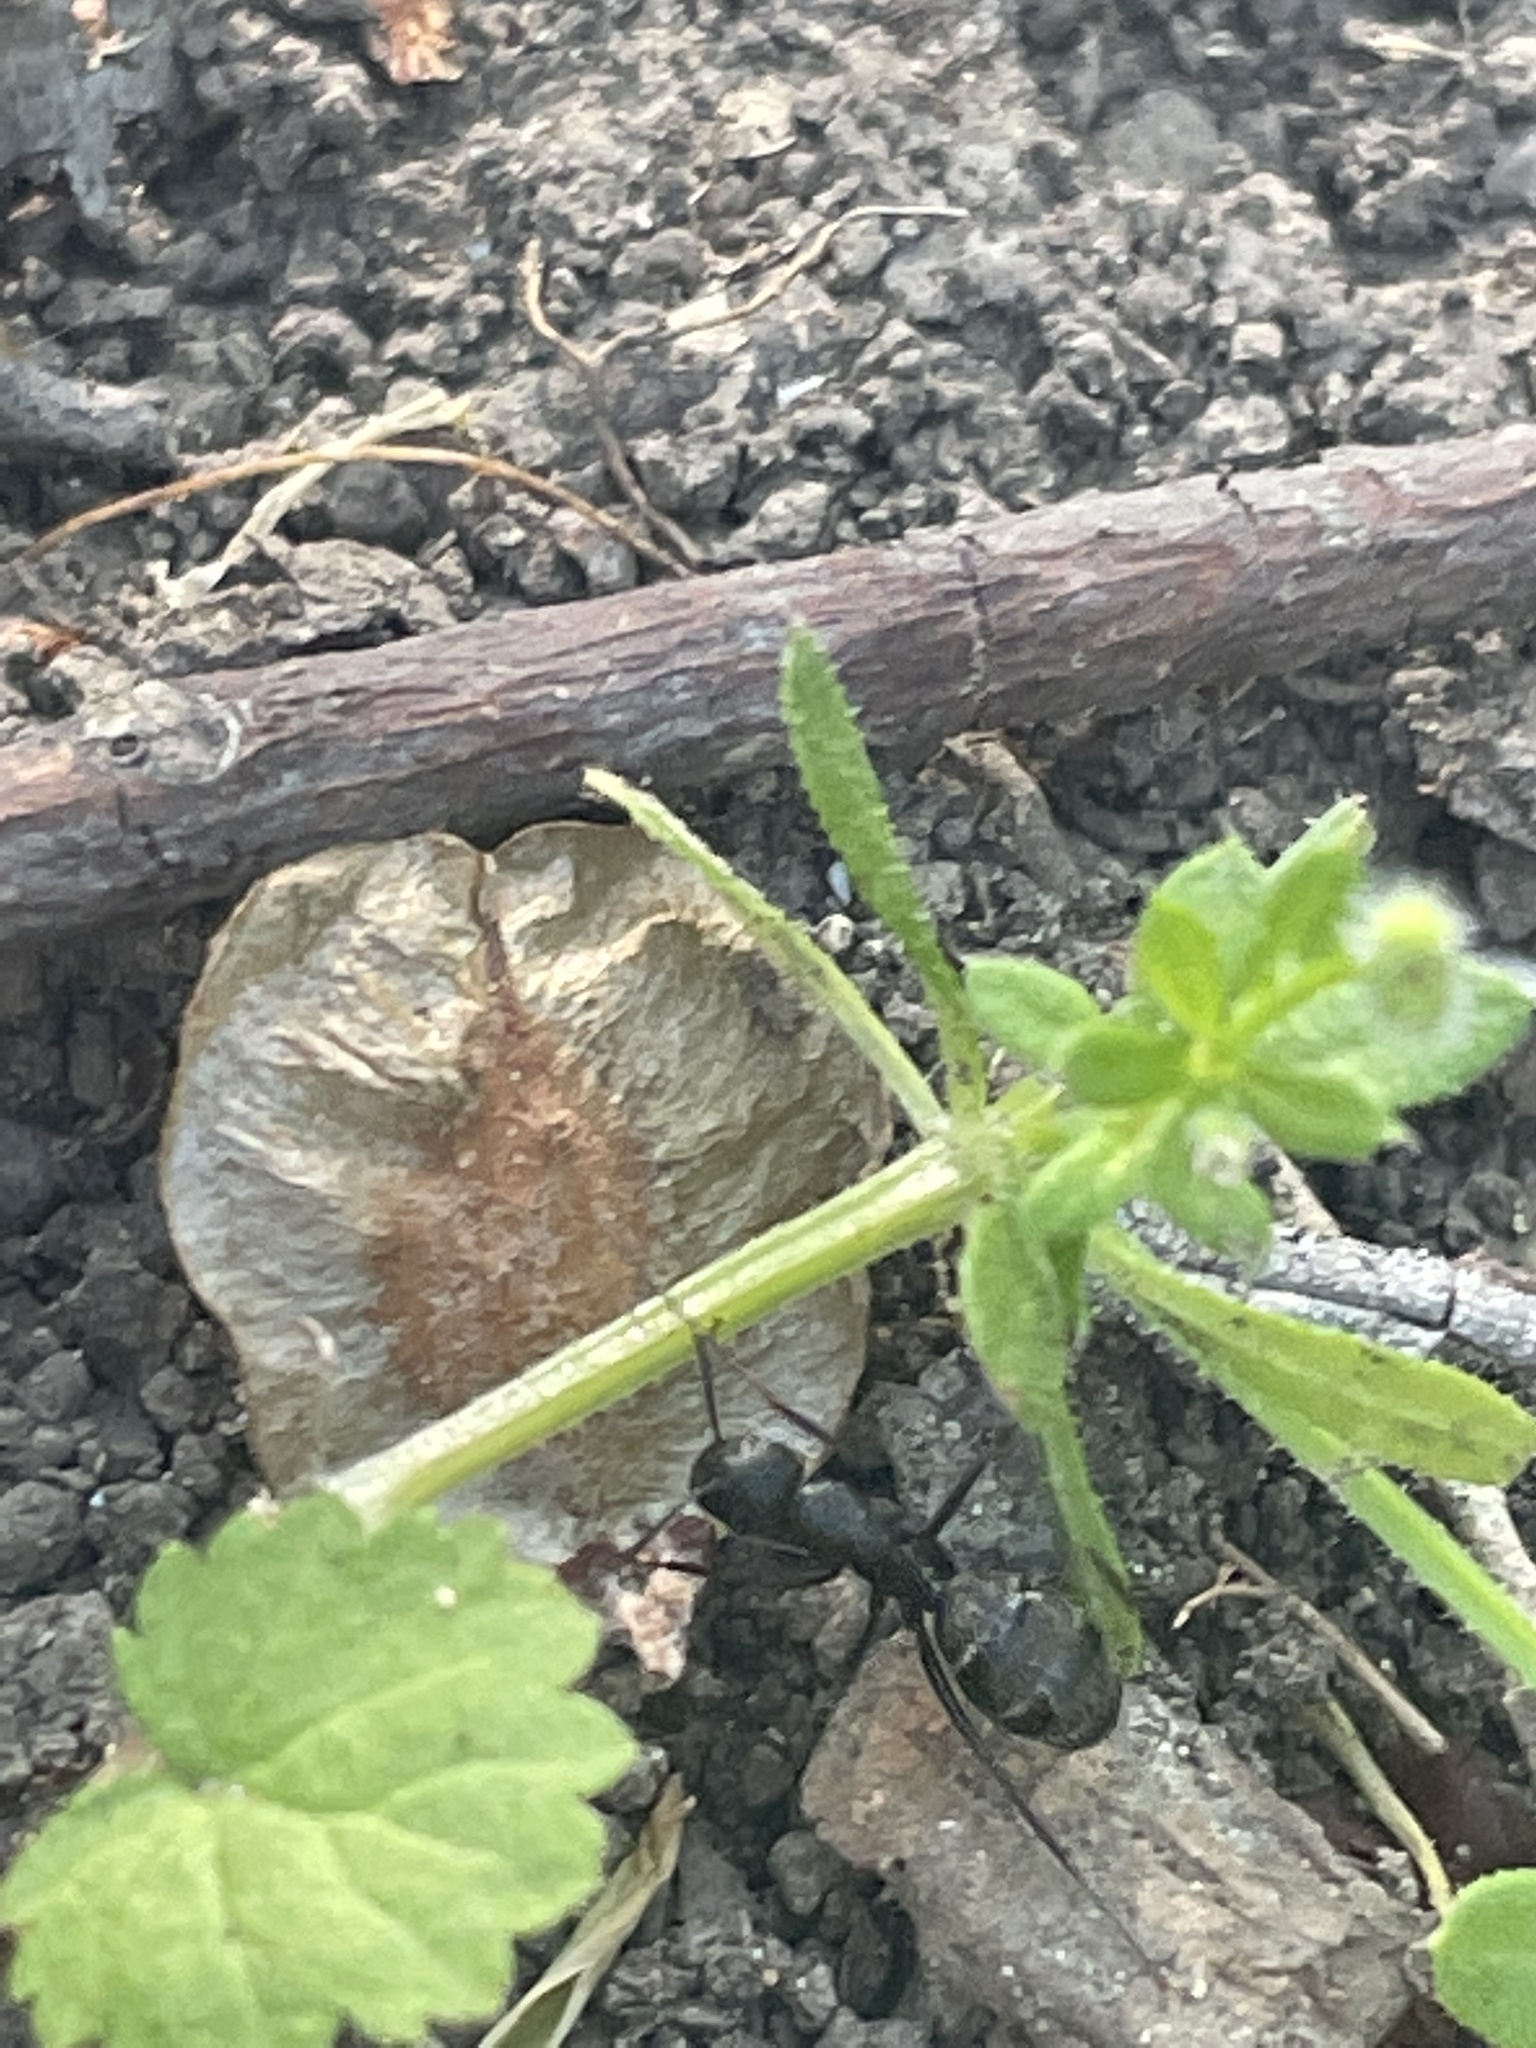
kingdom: Animalia
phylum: Arthropoda
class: Insecta
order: Hymenoptera
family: Formicidae
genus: Camponotus
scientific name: Camponotus pennsylvanicus
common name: Black carpenter ant
